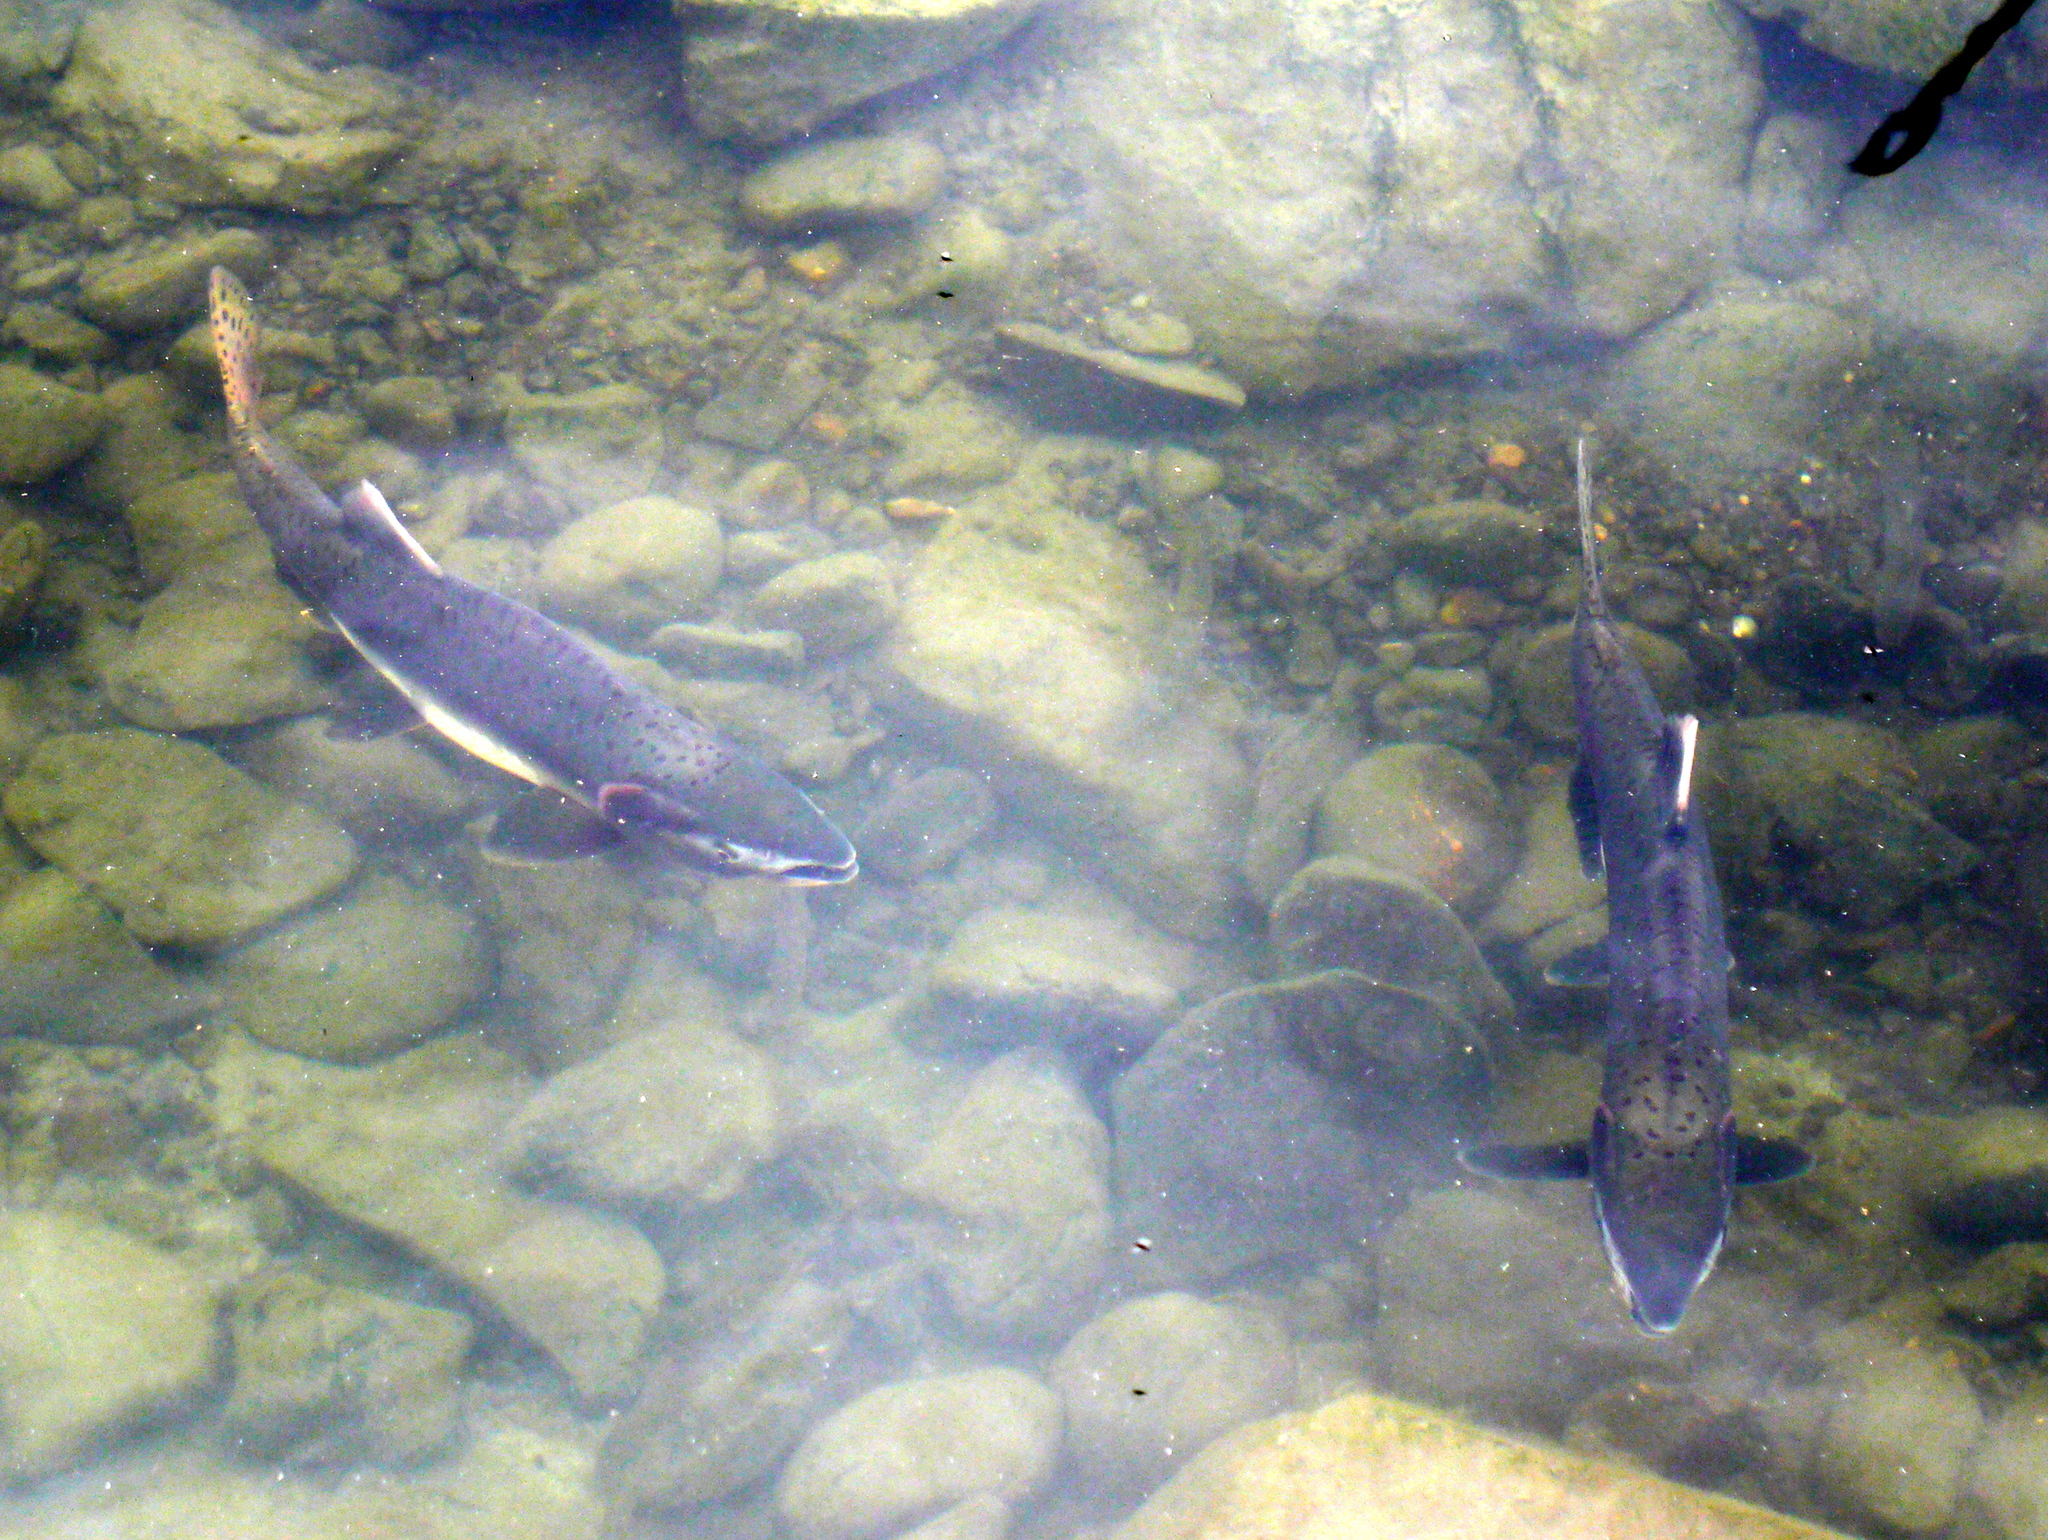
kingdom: Animalia
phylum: Chordata
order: Salmoniformes
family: Salmonidae
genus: Oncorhynchus
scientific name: Oncorhynchus gorbuscha
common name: Humpback salmon
